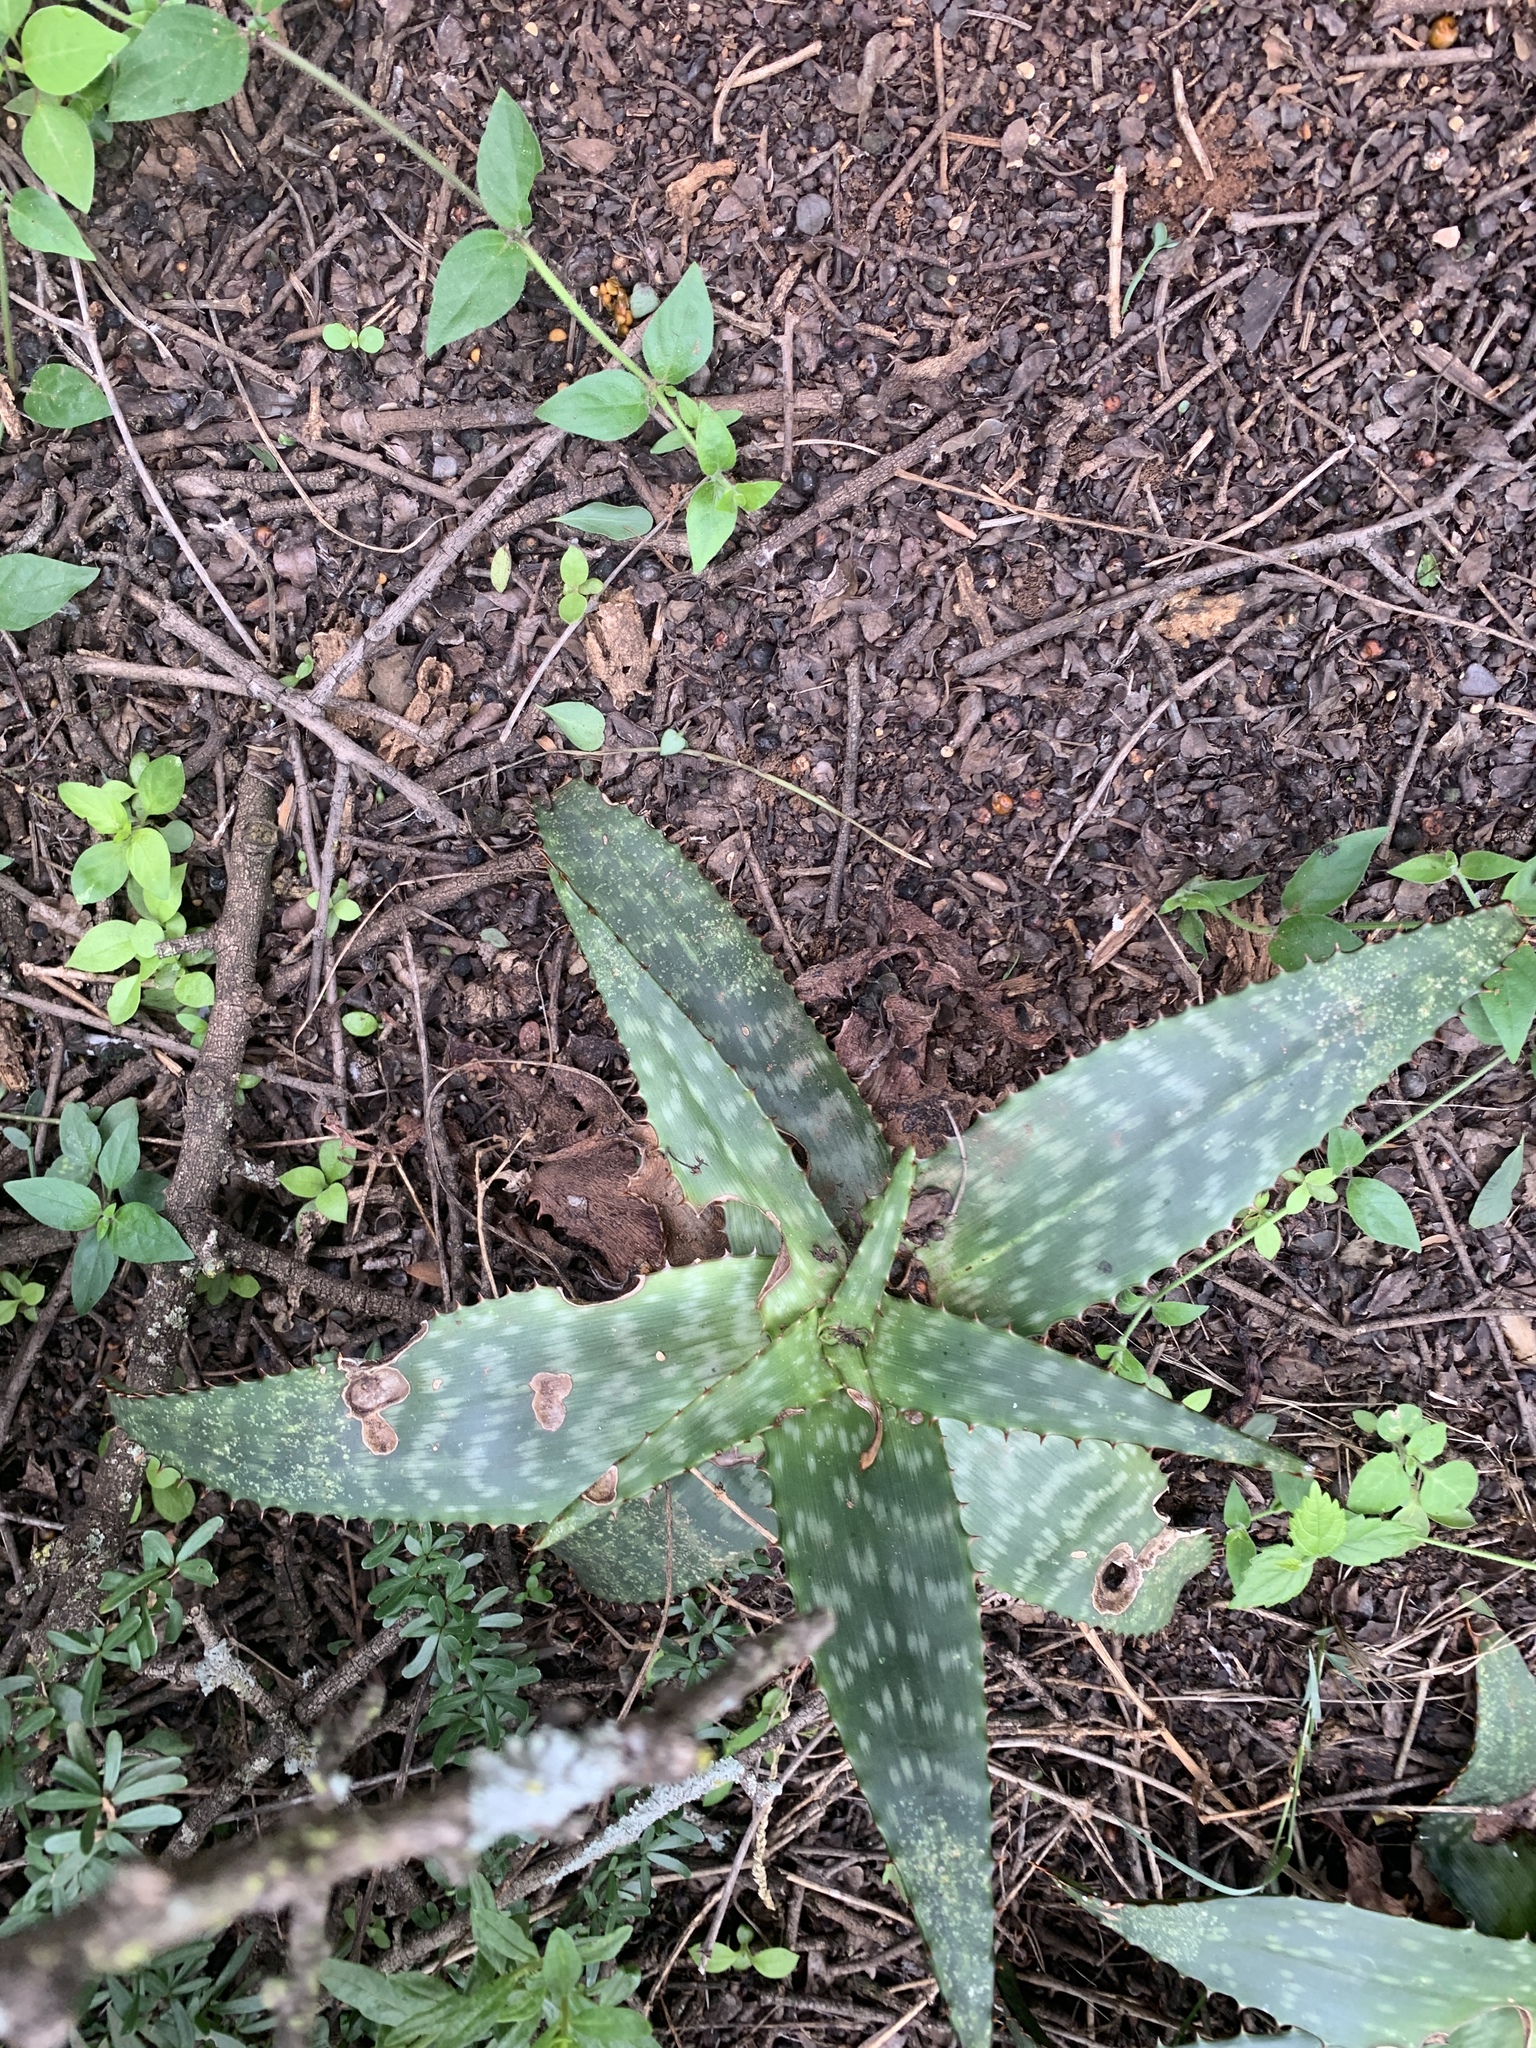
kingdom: Plantae
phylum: Tracheophyta
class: Liliopsida
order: Asparagales
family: Asphodelaceae
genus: Aloe
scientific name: Aloe davyana
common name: Spotted aloe
